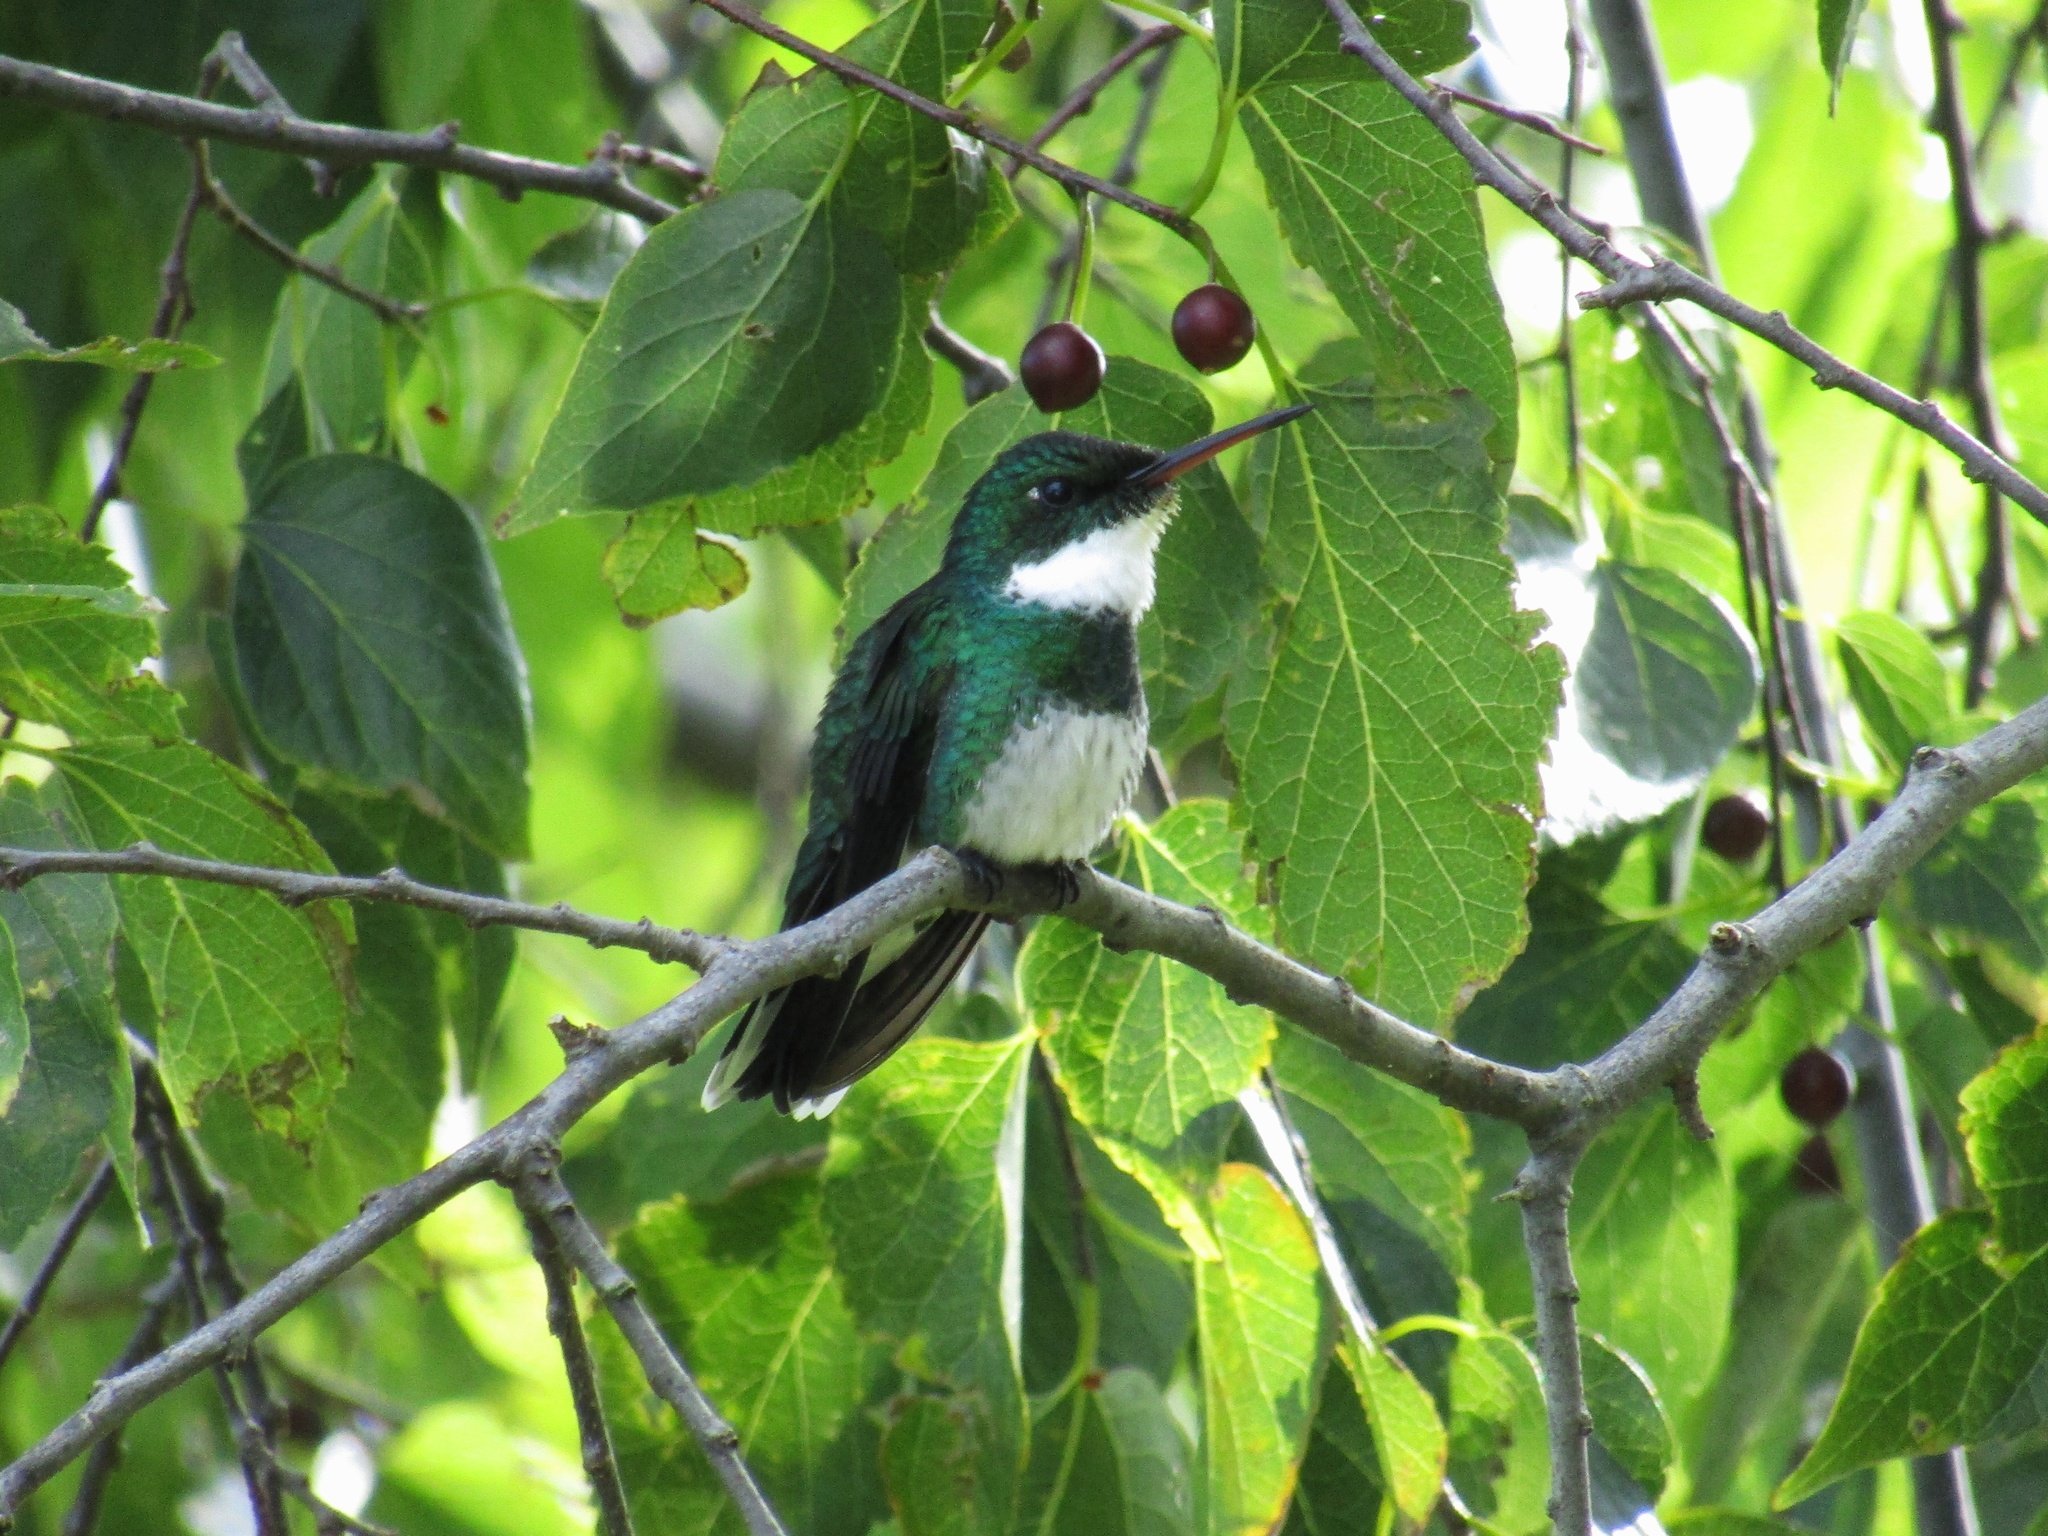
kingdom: Animalia
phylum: Chordata
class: Aves
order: Apodiformes
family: Trochilidae
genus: Leucochloris
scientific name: Leucochloris albicollis
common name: White-throated hummingbird
